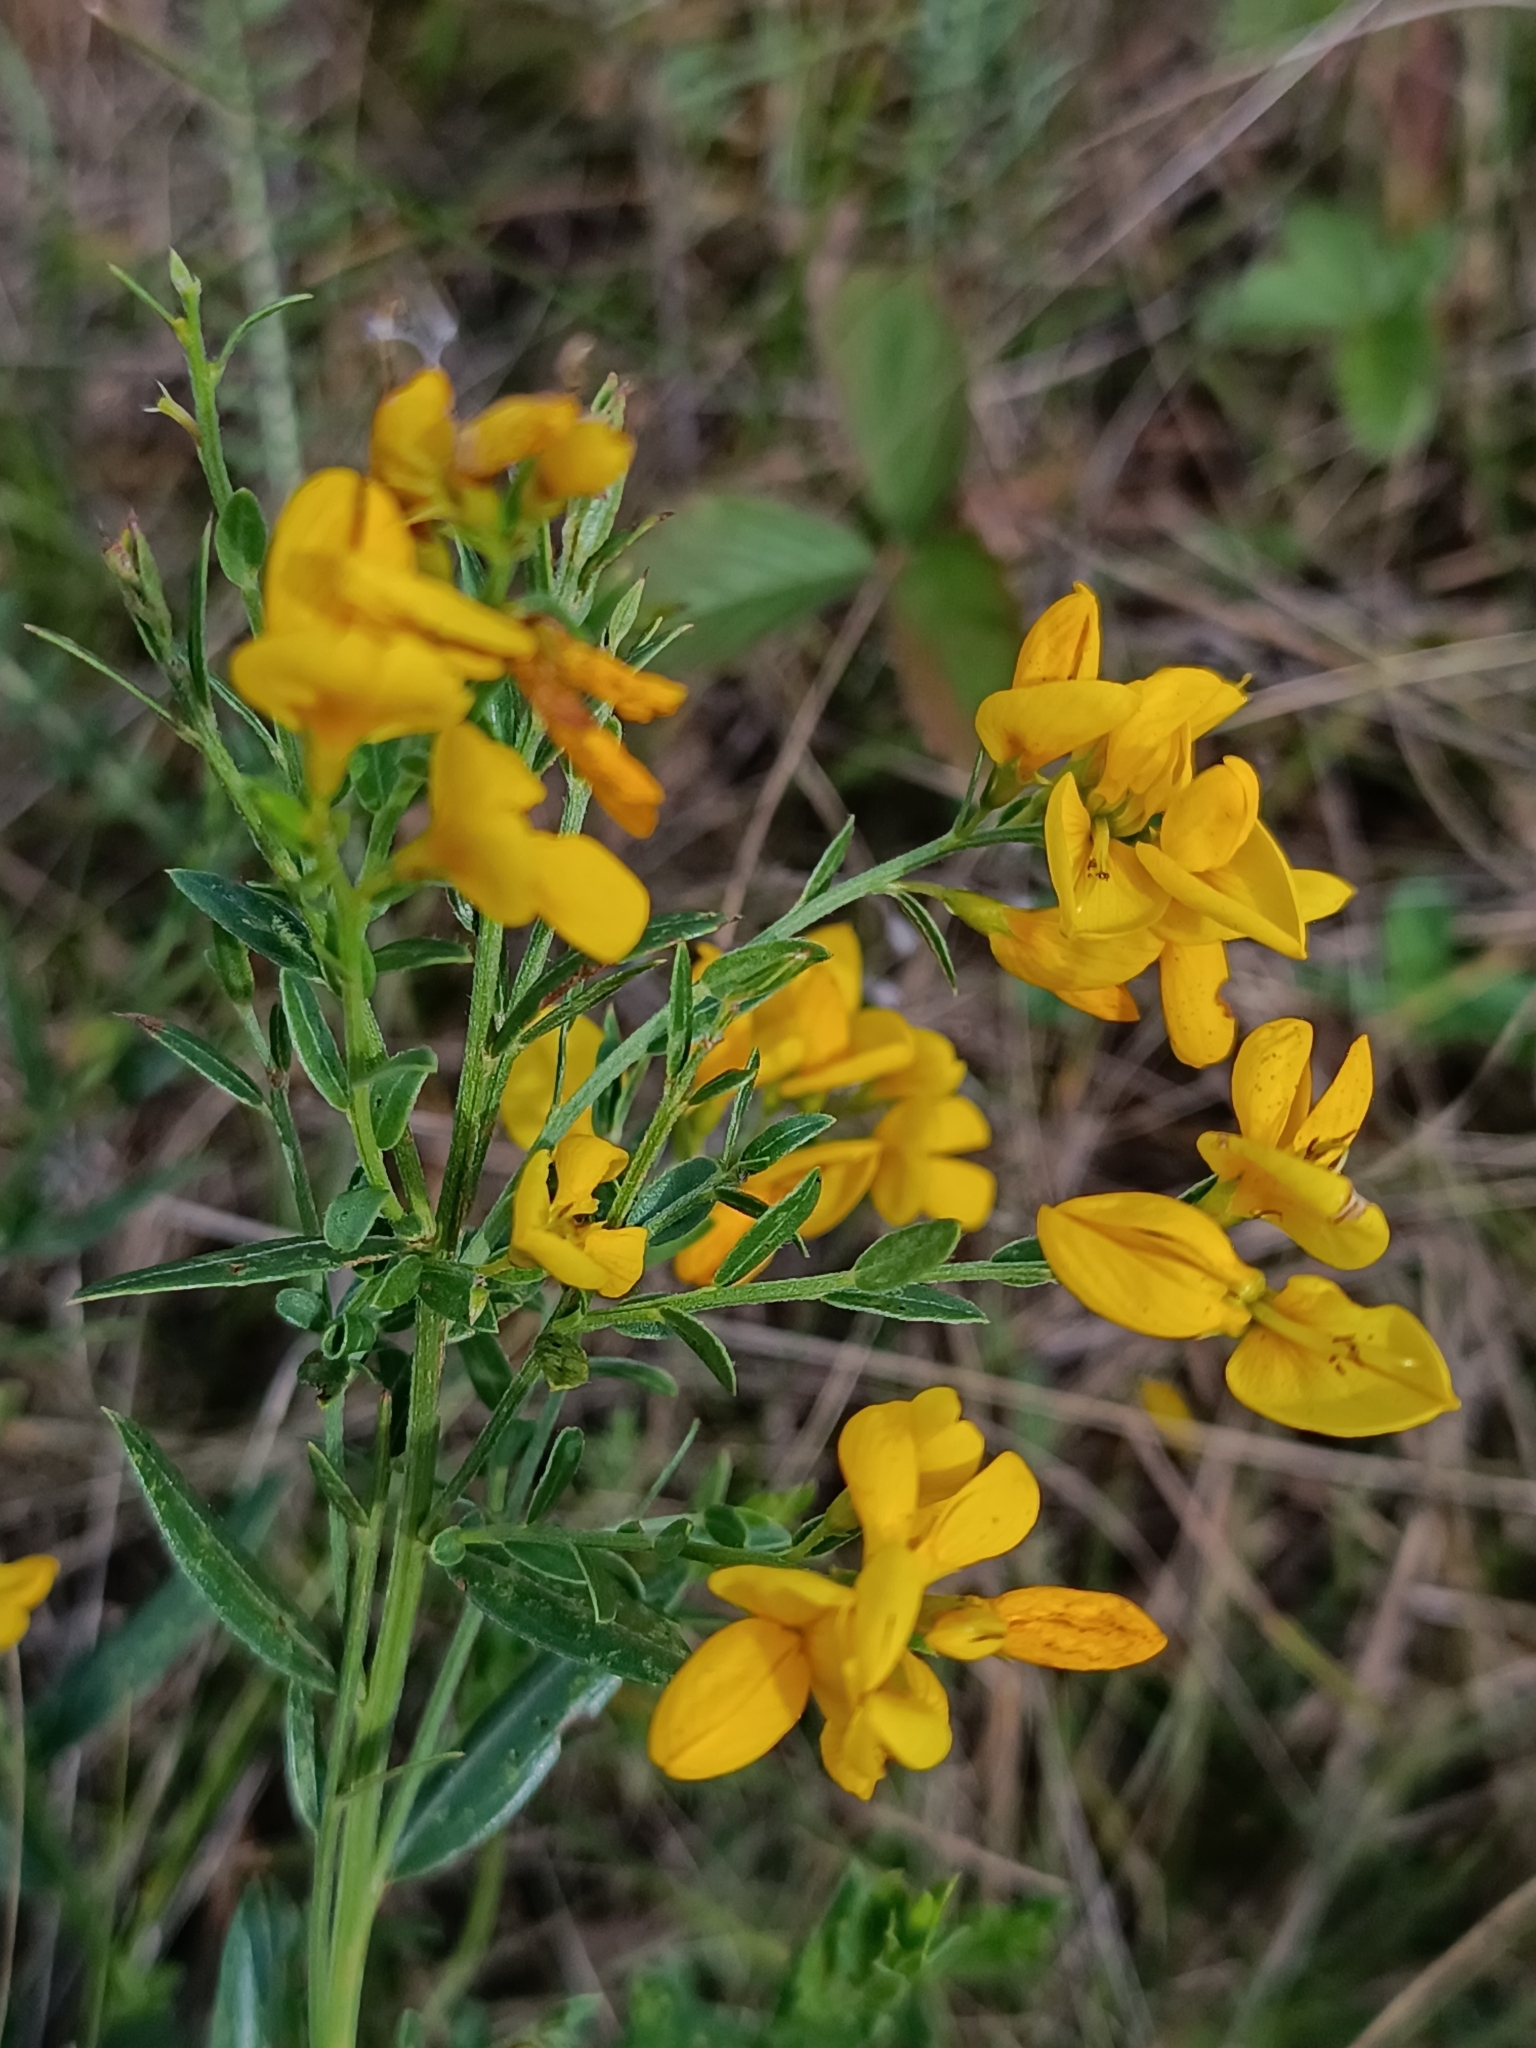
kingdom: Plantae
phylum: Tracheophyta
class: Magnoliopsida
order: Fabales
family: Fabaceae
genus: Genista
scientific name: Genista tinctoria
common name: Dyer's greenweed
